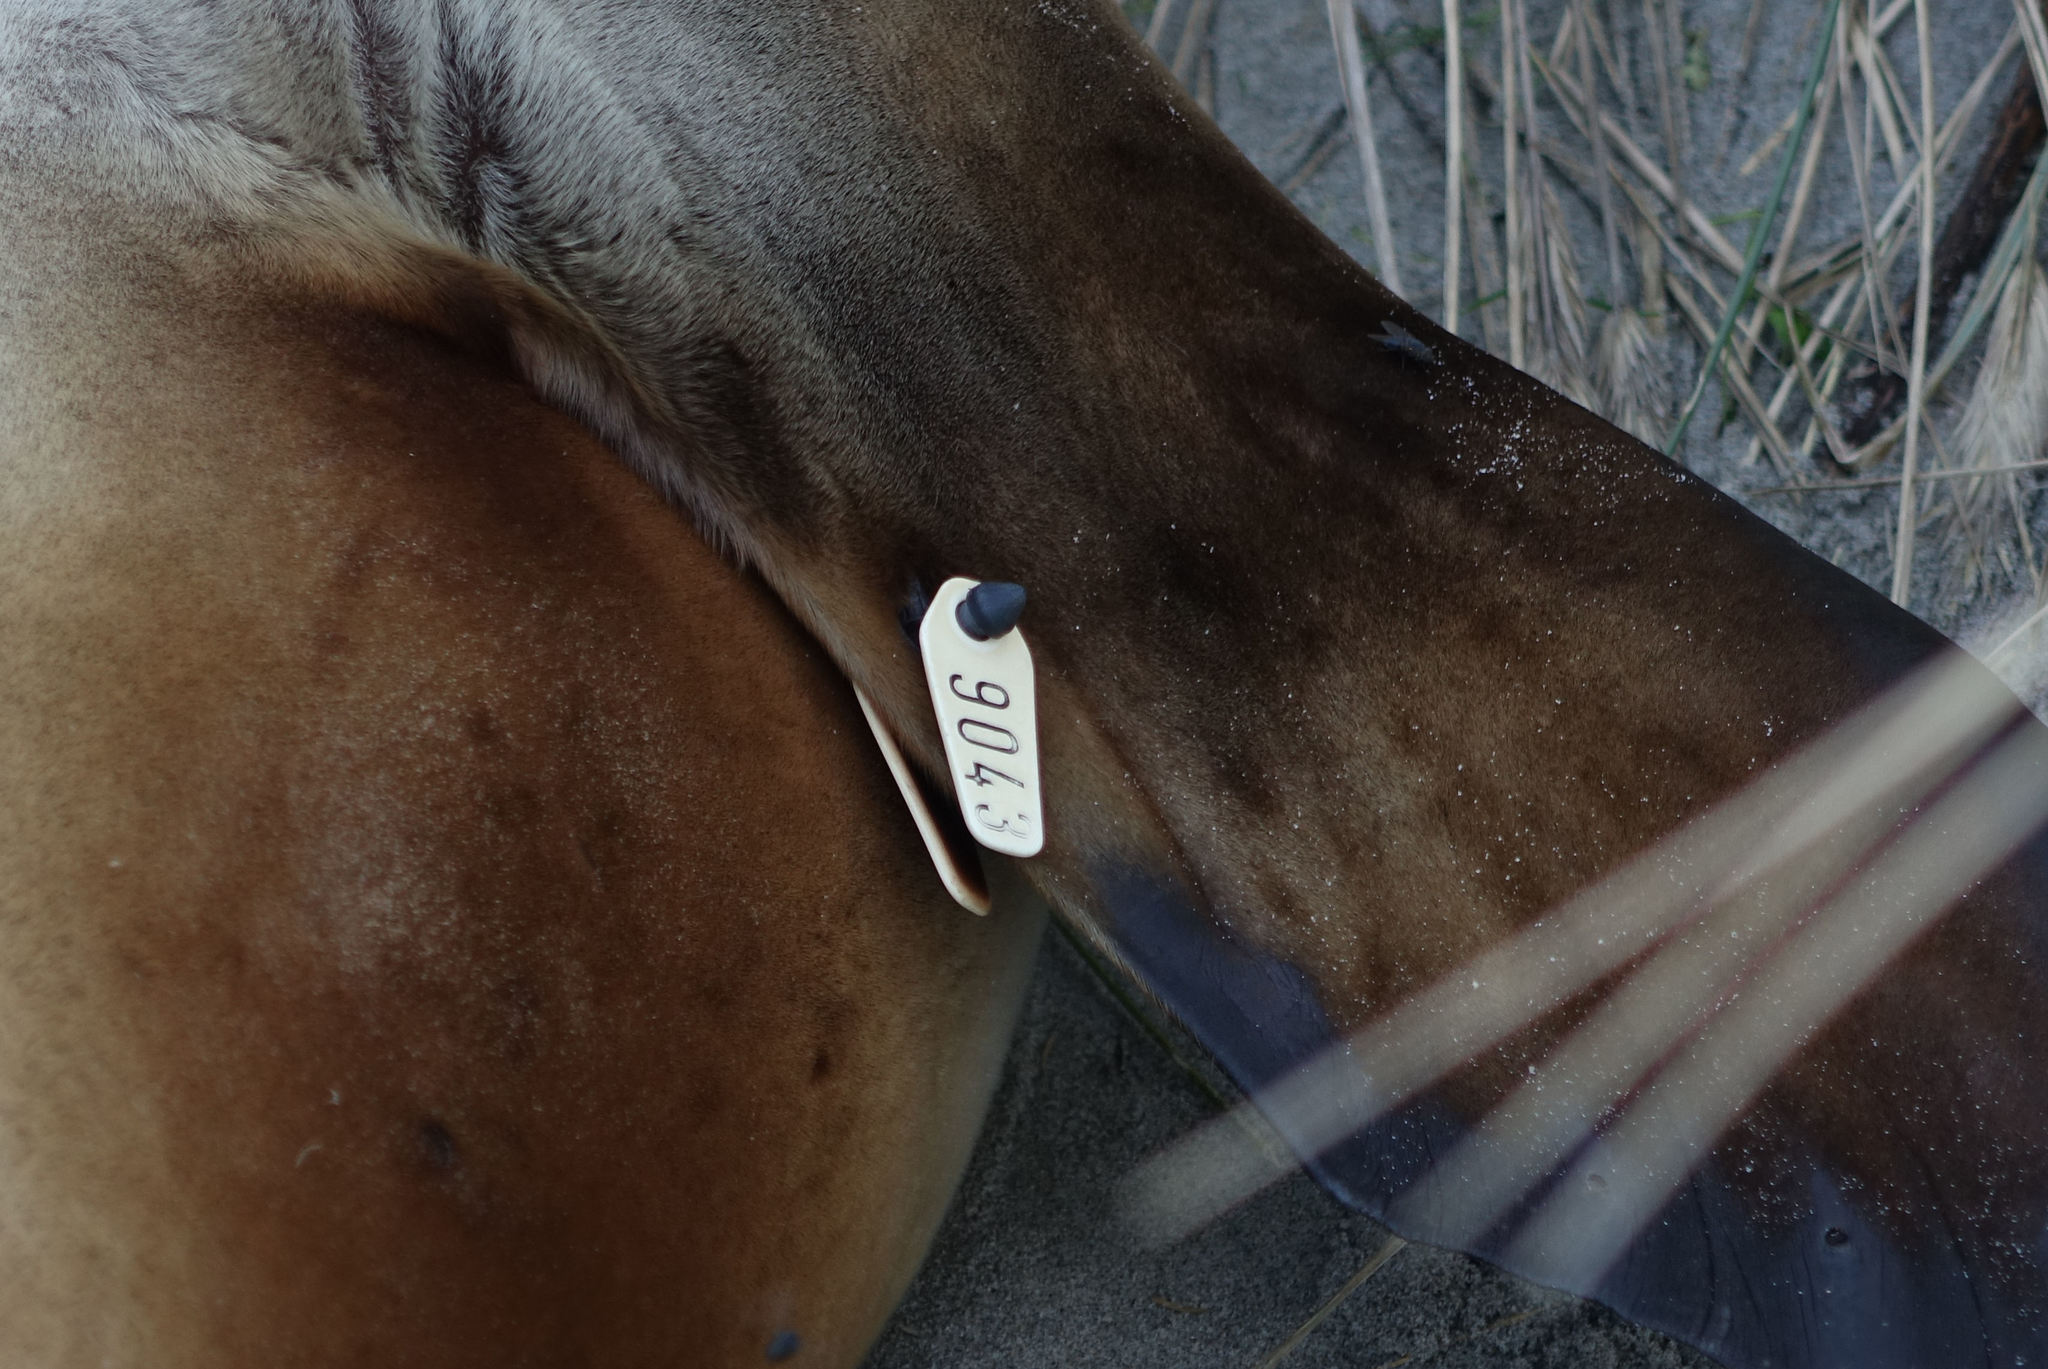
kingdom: Animalia
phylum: Chordata
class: Mammalia
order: Carnivora
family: Otariidae
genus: Phocarctos
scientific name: Phocarctos hookeri
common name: New zealand sea lion
